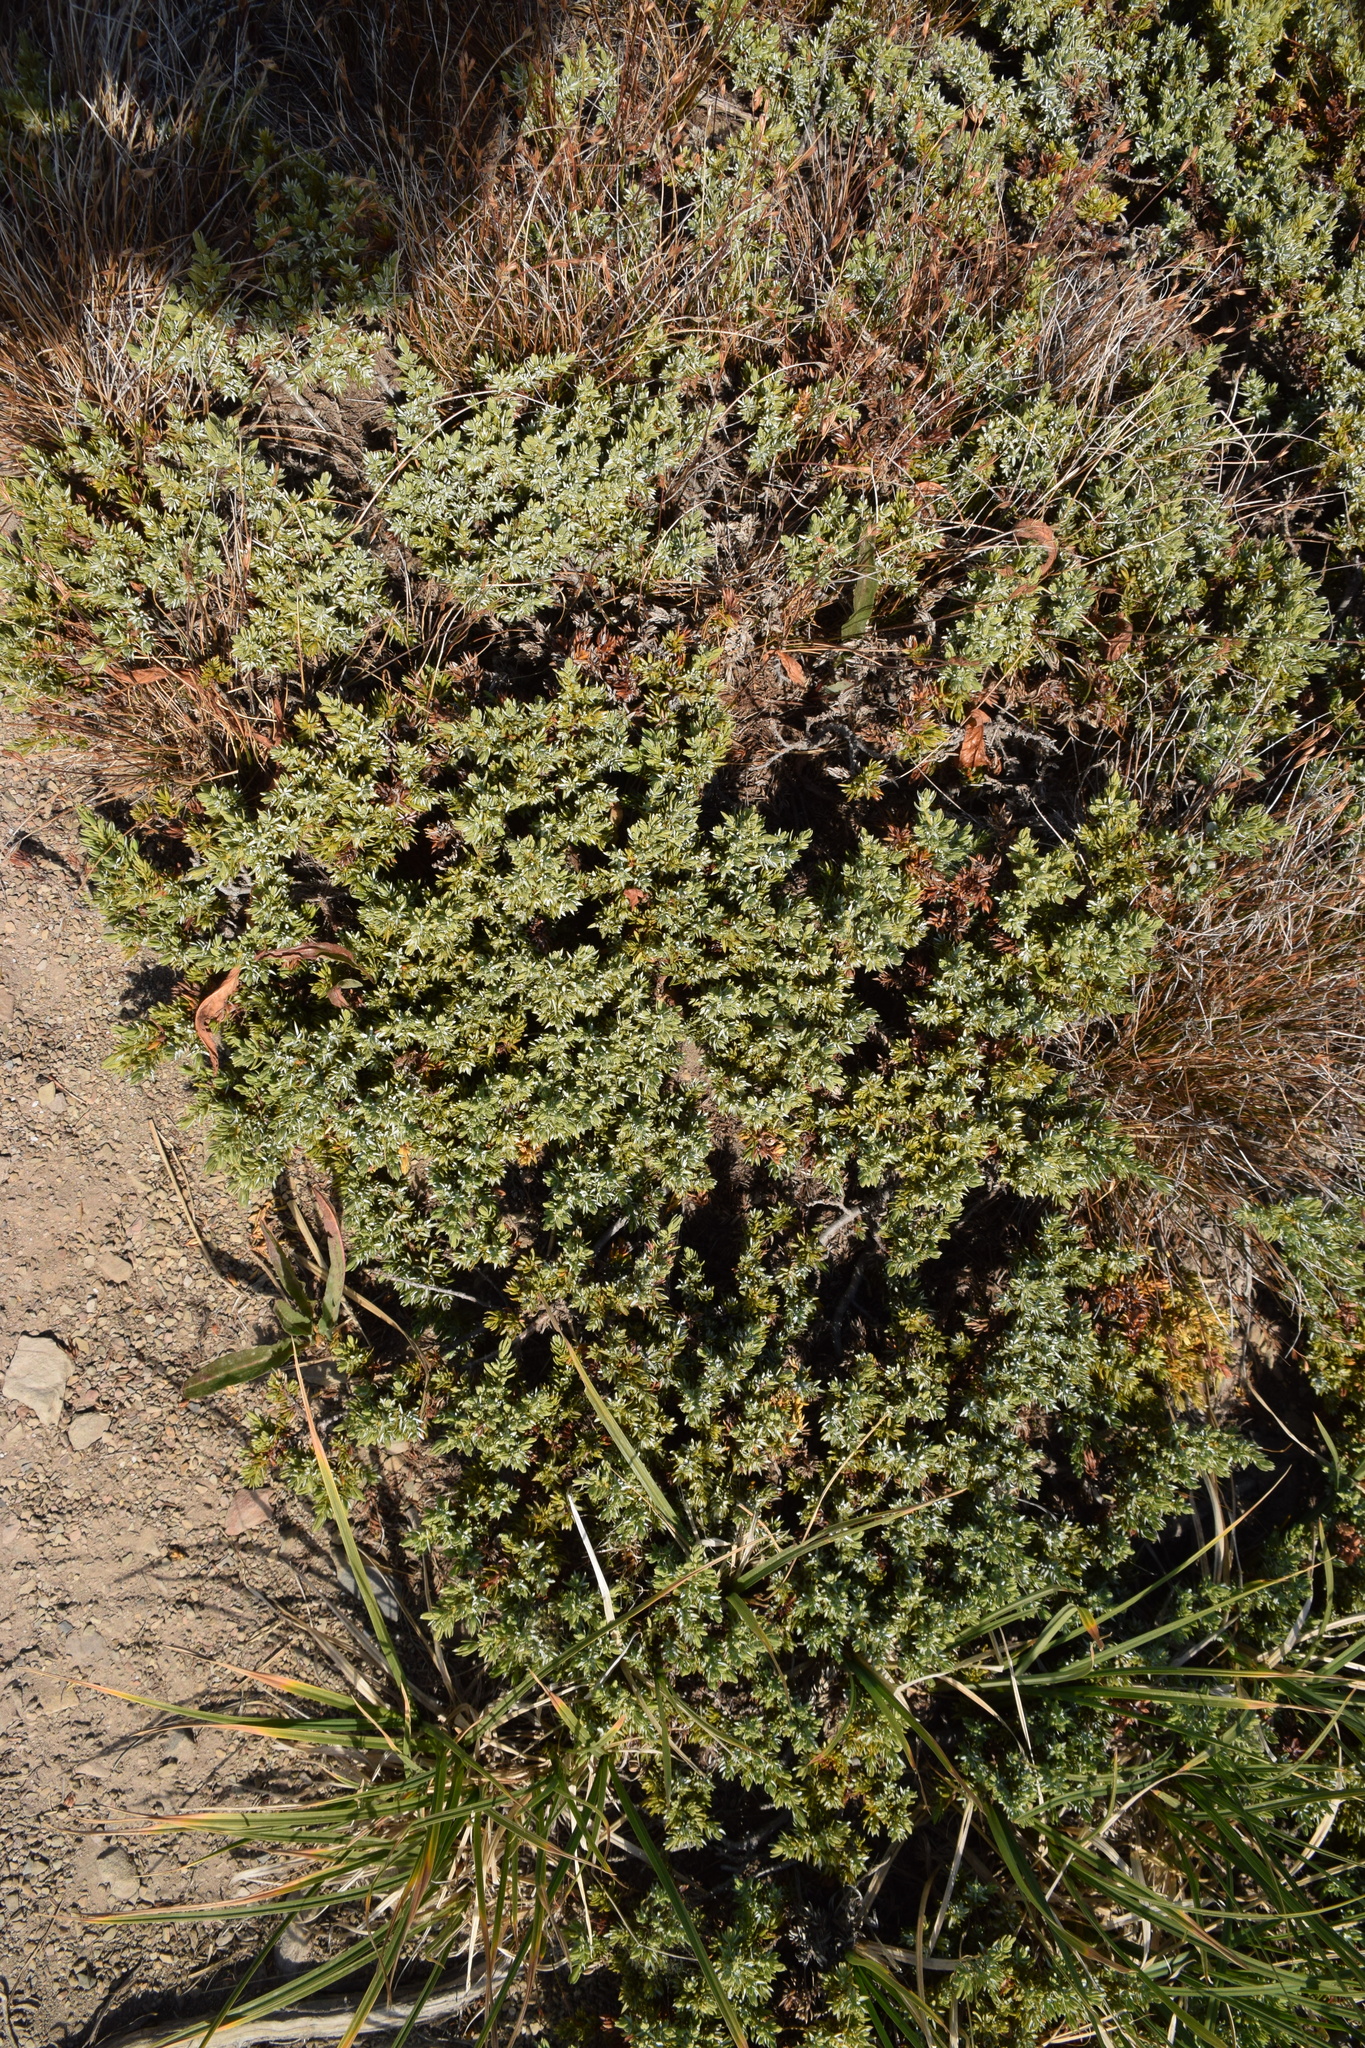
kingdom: Plantae
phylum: Tracheophyta
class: Pinopsida
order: Pinales
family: Cupressaceae
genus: Juniperus
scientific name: Juniperus communis
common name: Common juniper
